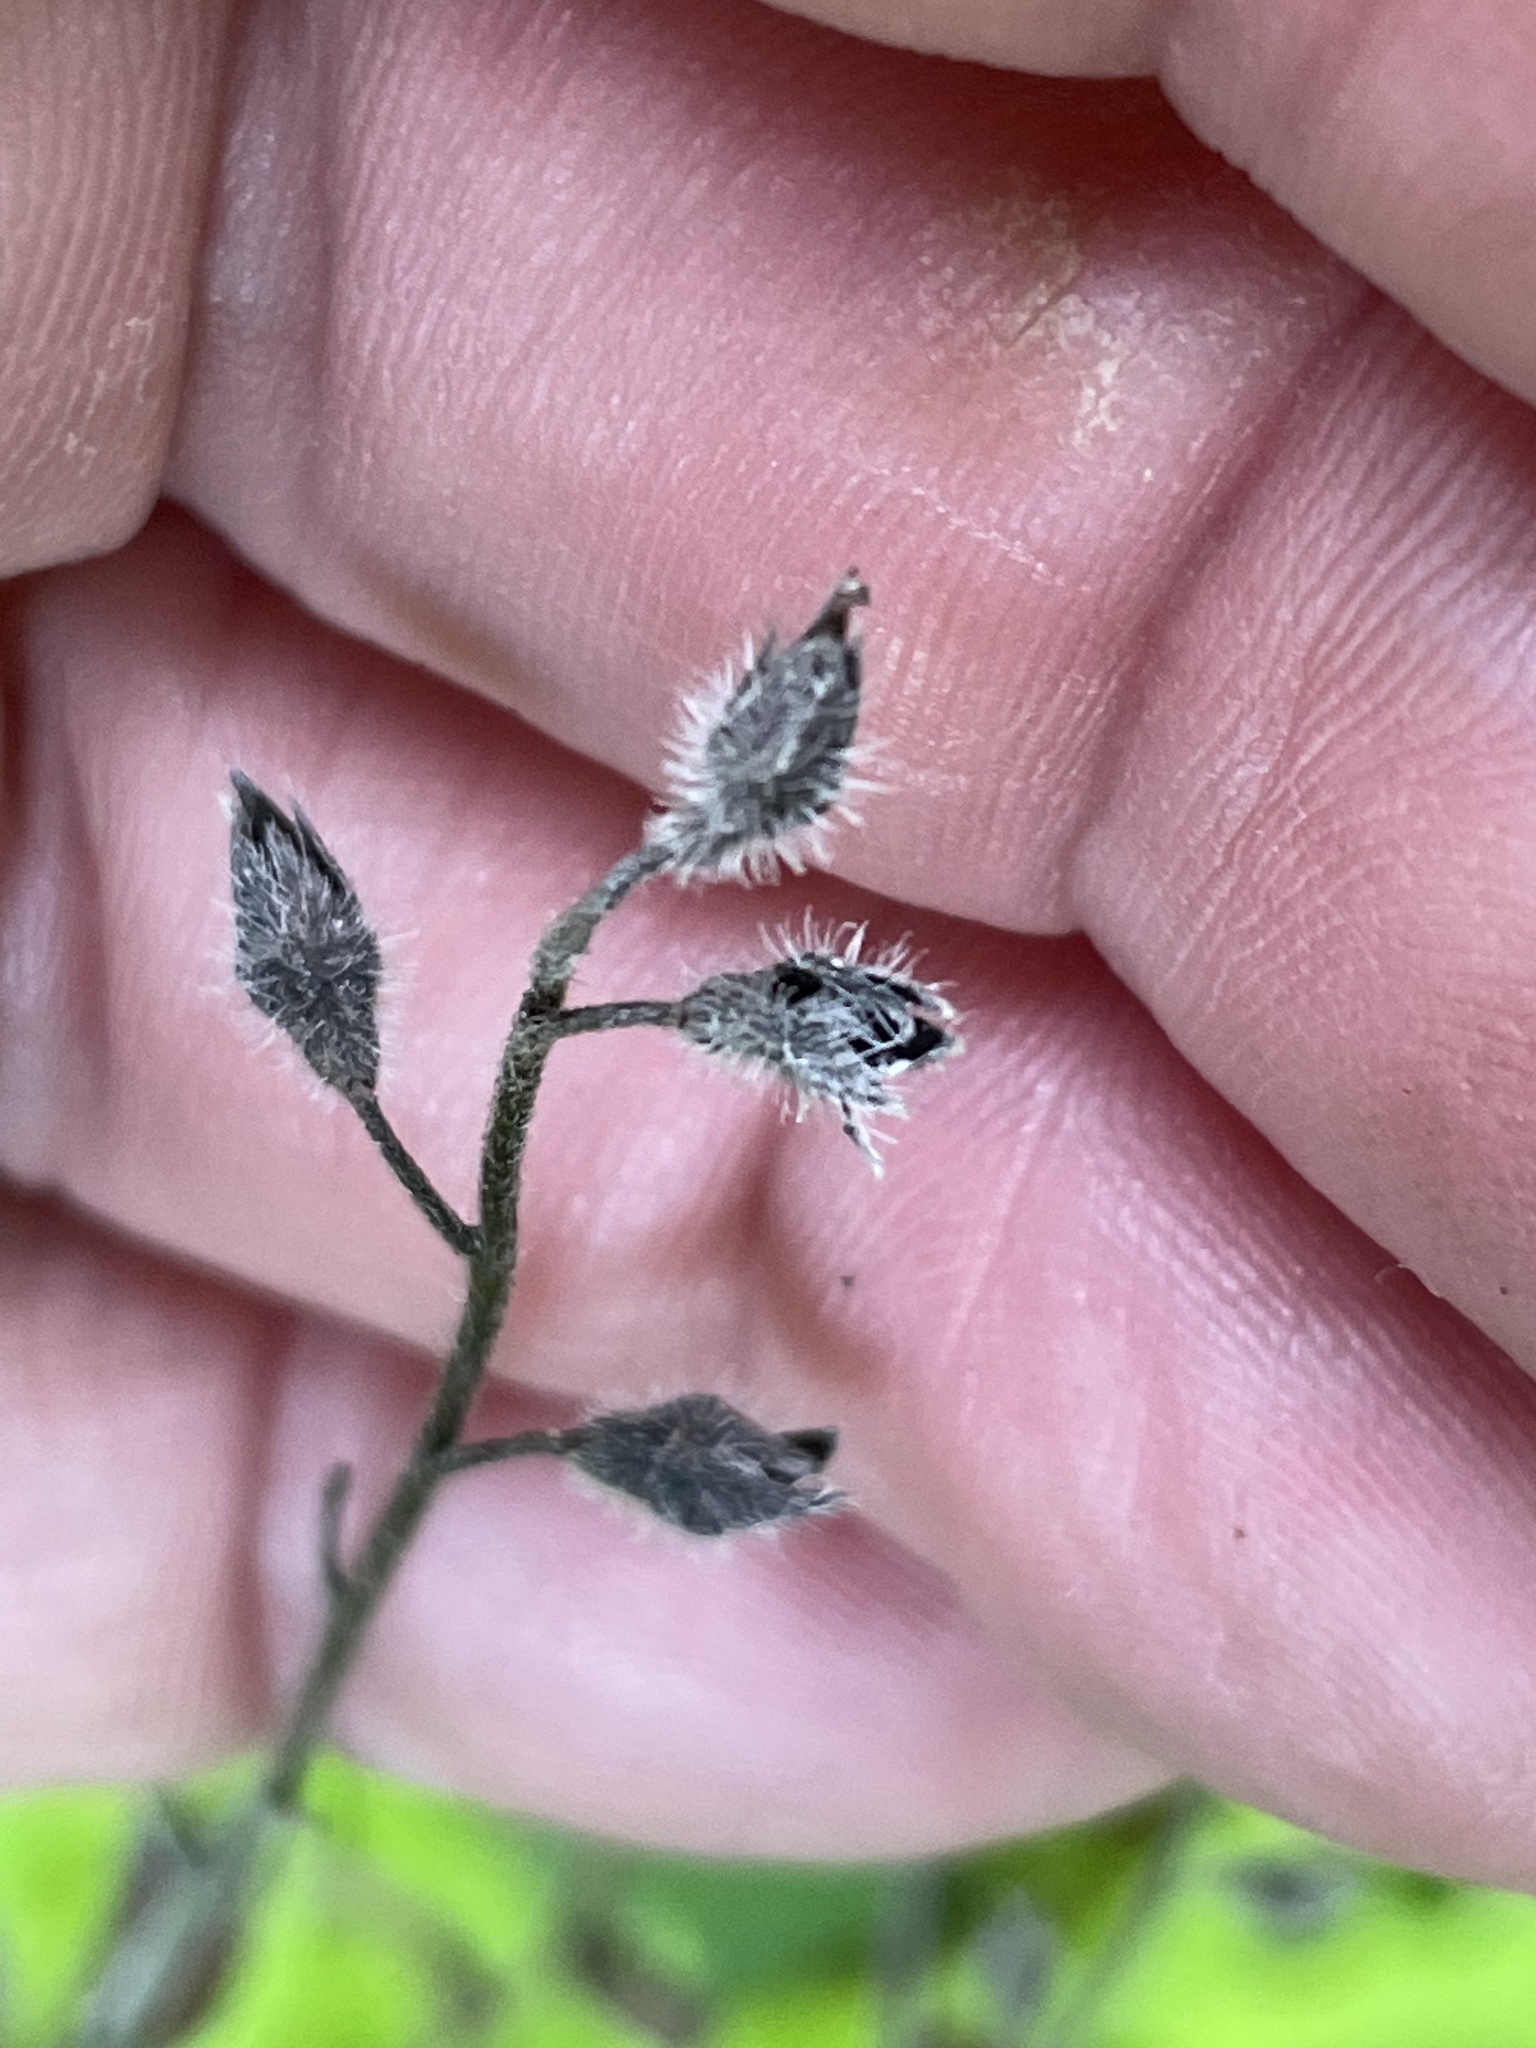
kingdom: Plantae
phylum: Tracheophyta
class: Magnoliopsida
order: Boraginales
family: Boraginaceae
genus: Myosotis
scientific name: Myosotis macrosperma
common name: Large-seed forget-me-not
